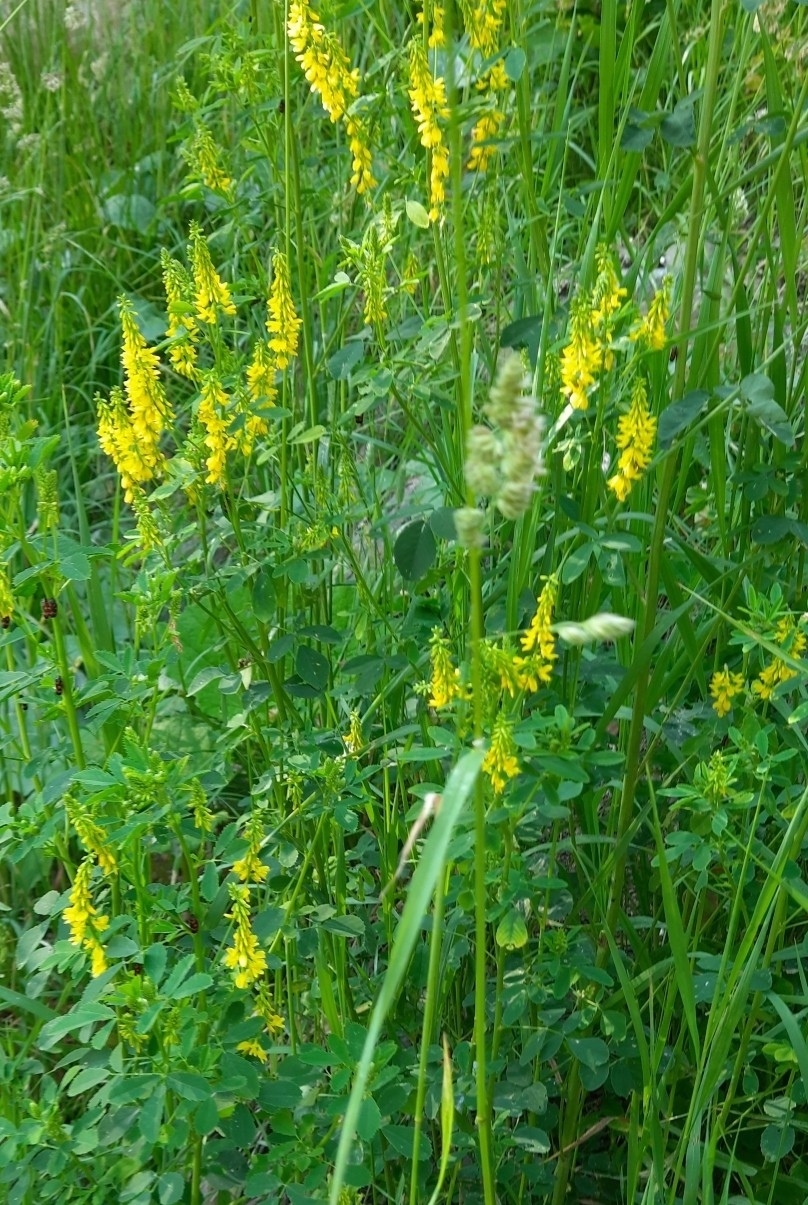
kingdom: Plantae
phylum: Tracheophyta
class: Magnoliopsida
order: Fabales
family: Fabaceae
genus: Melilotus
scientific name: Melilotus officinalis
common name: Sweetclover
